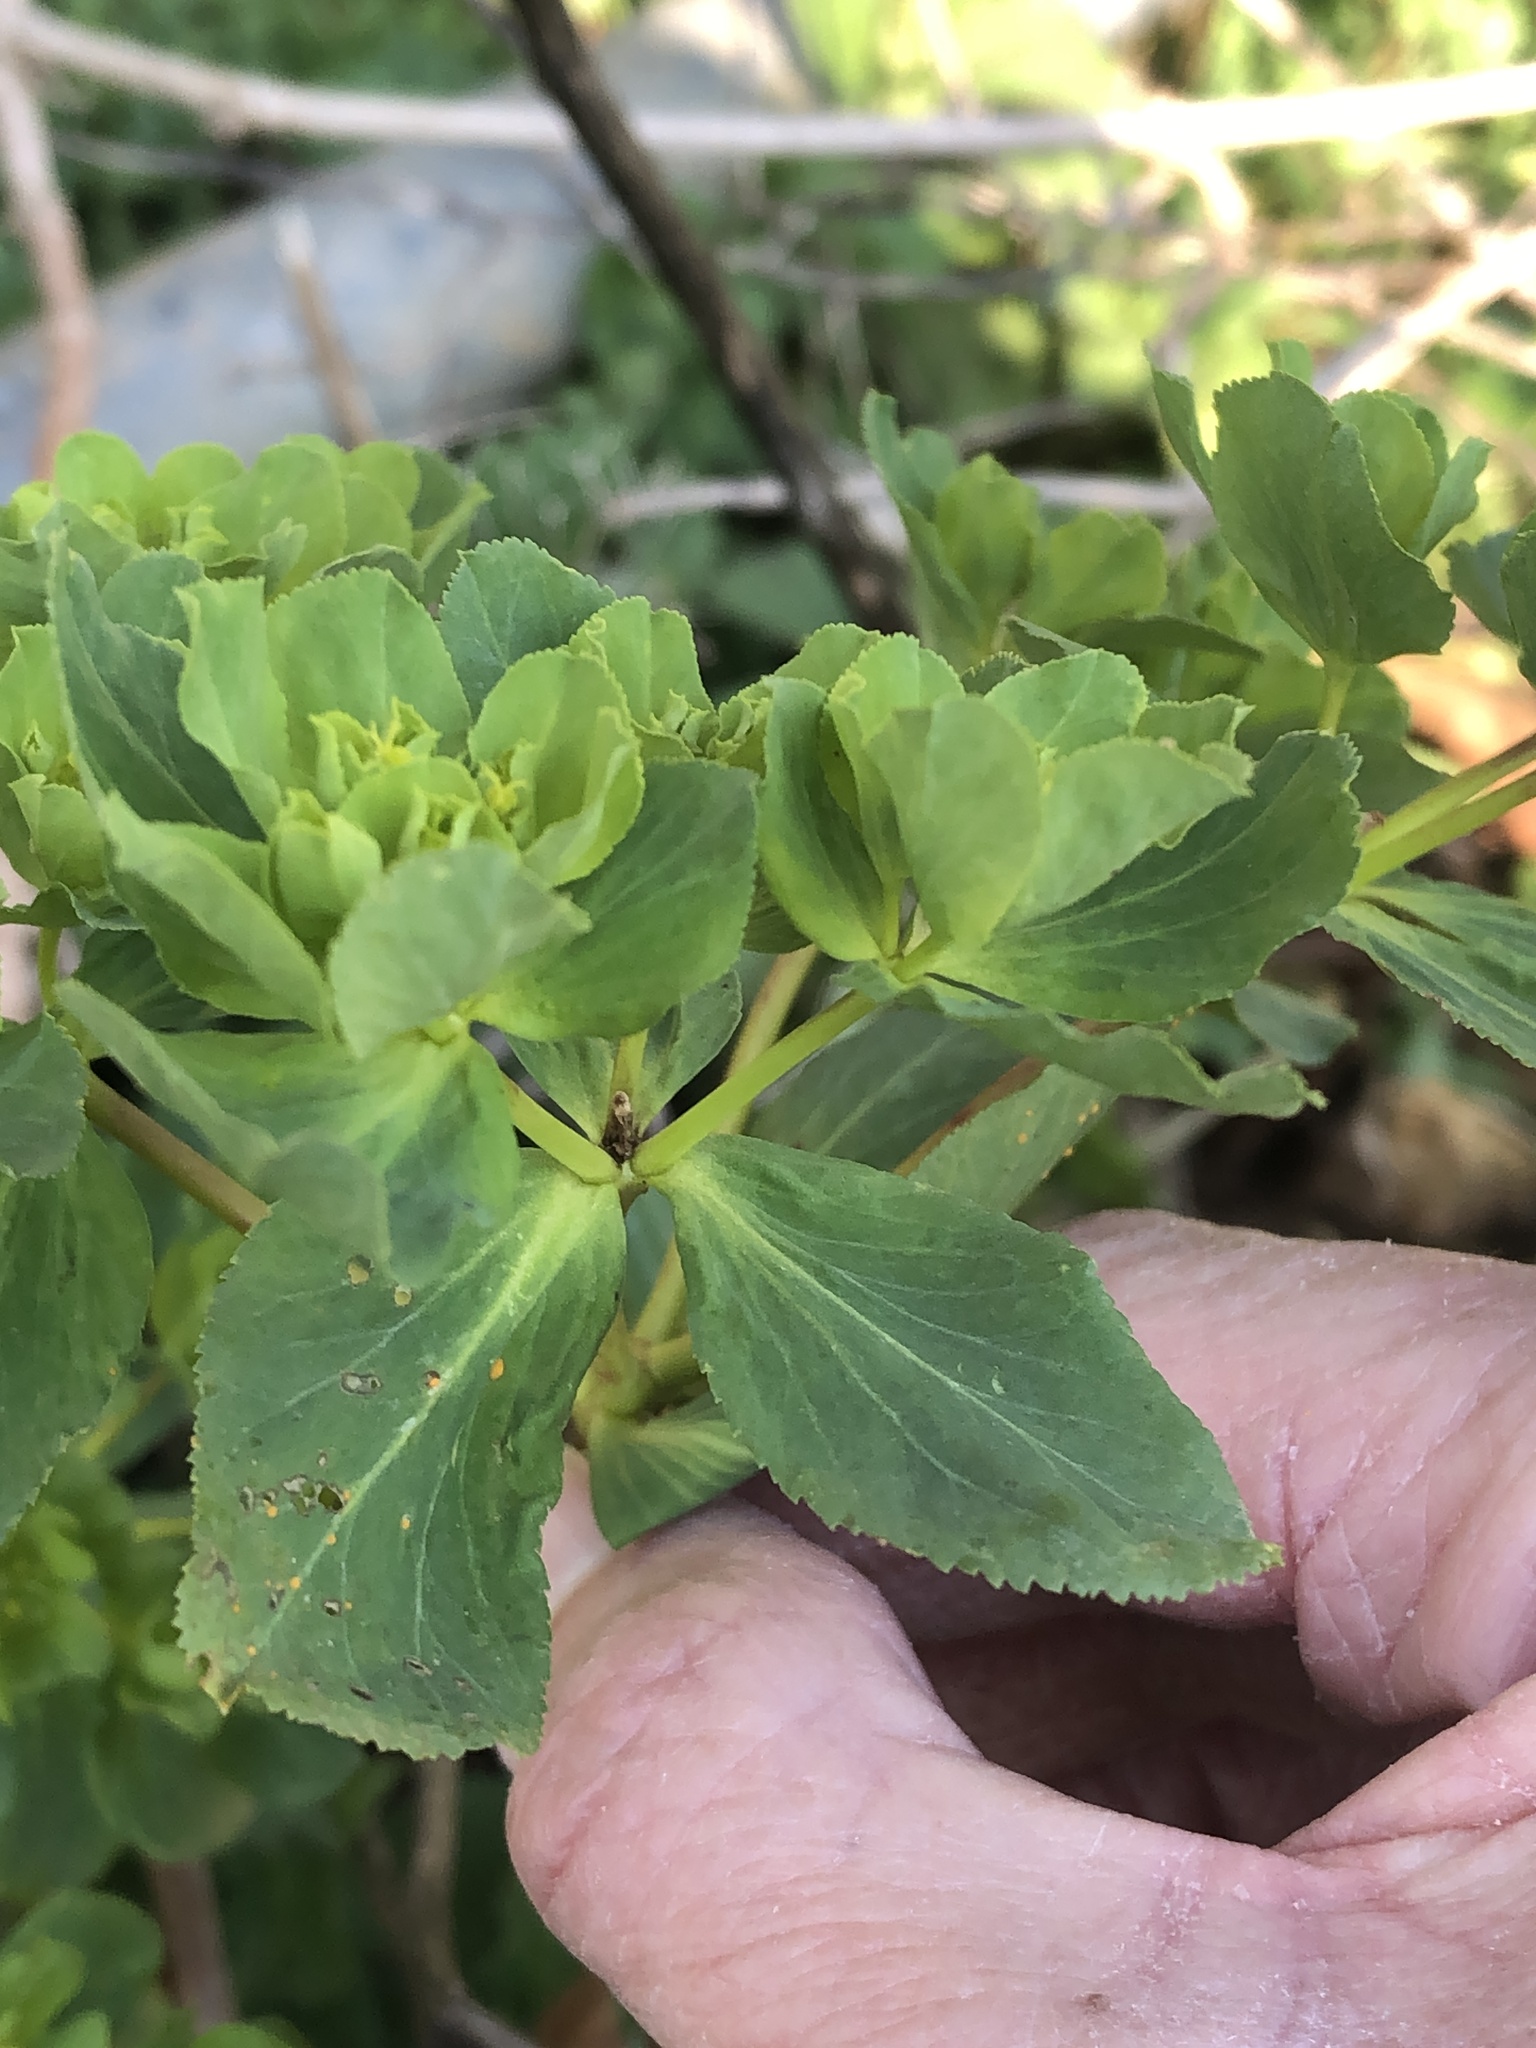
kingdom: Plantae
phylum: Tracheophyta
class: Magnoliopsida
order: Malpighiales
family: Euphorbiaceae
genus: Euphorbia
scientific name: Euphorbia helioscopia
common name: Sun spurge
